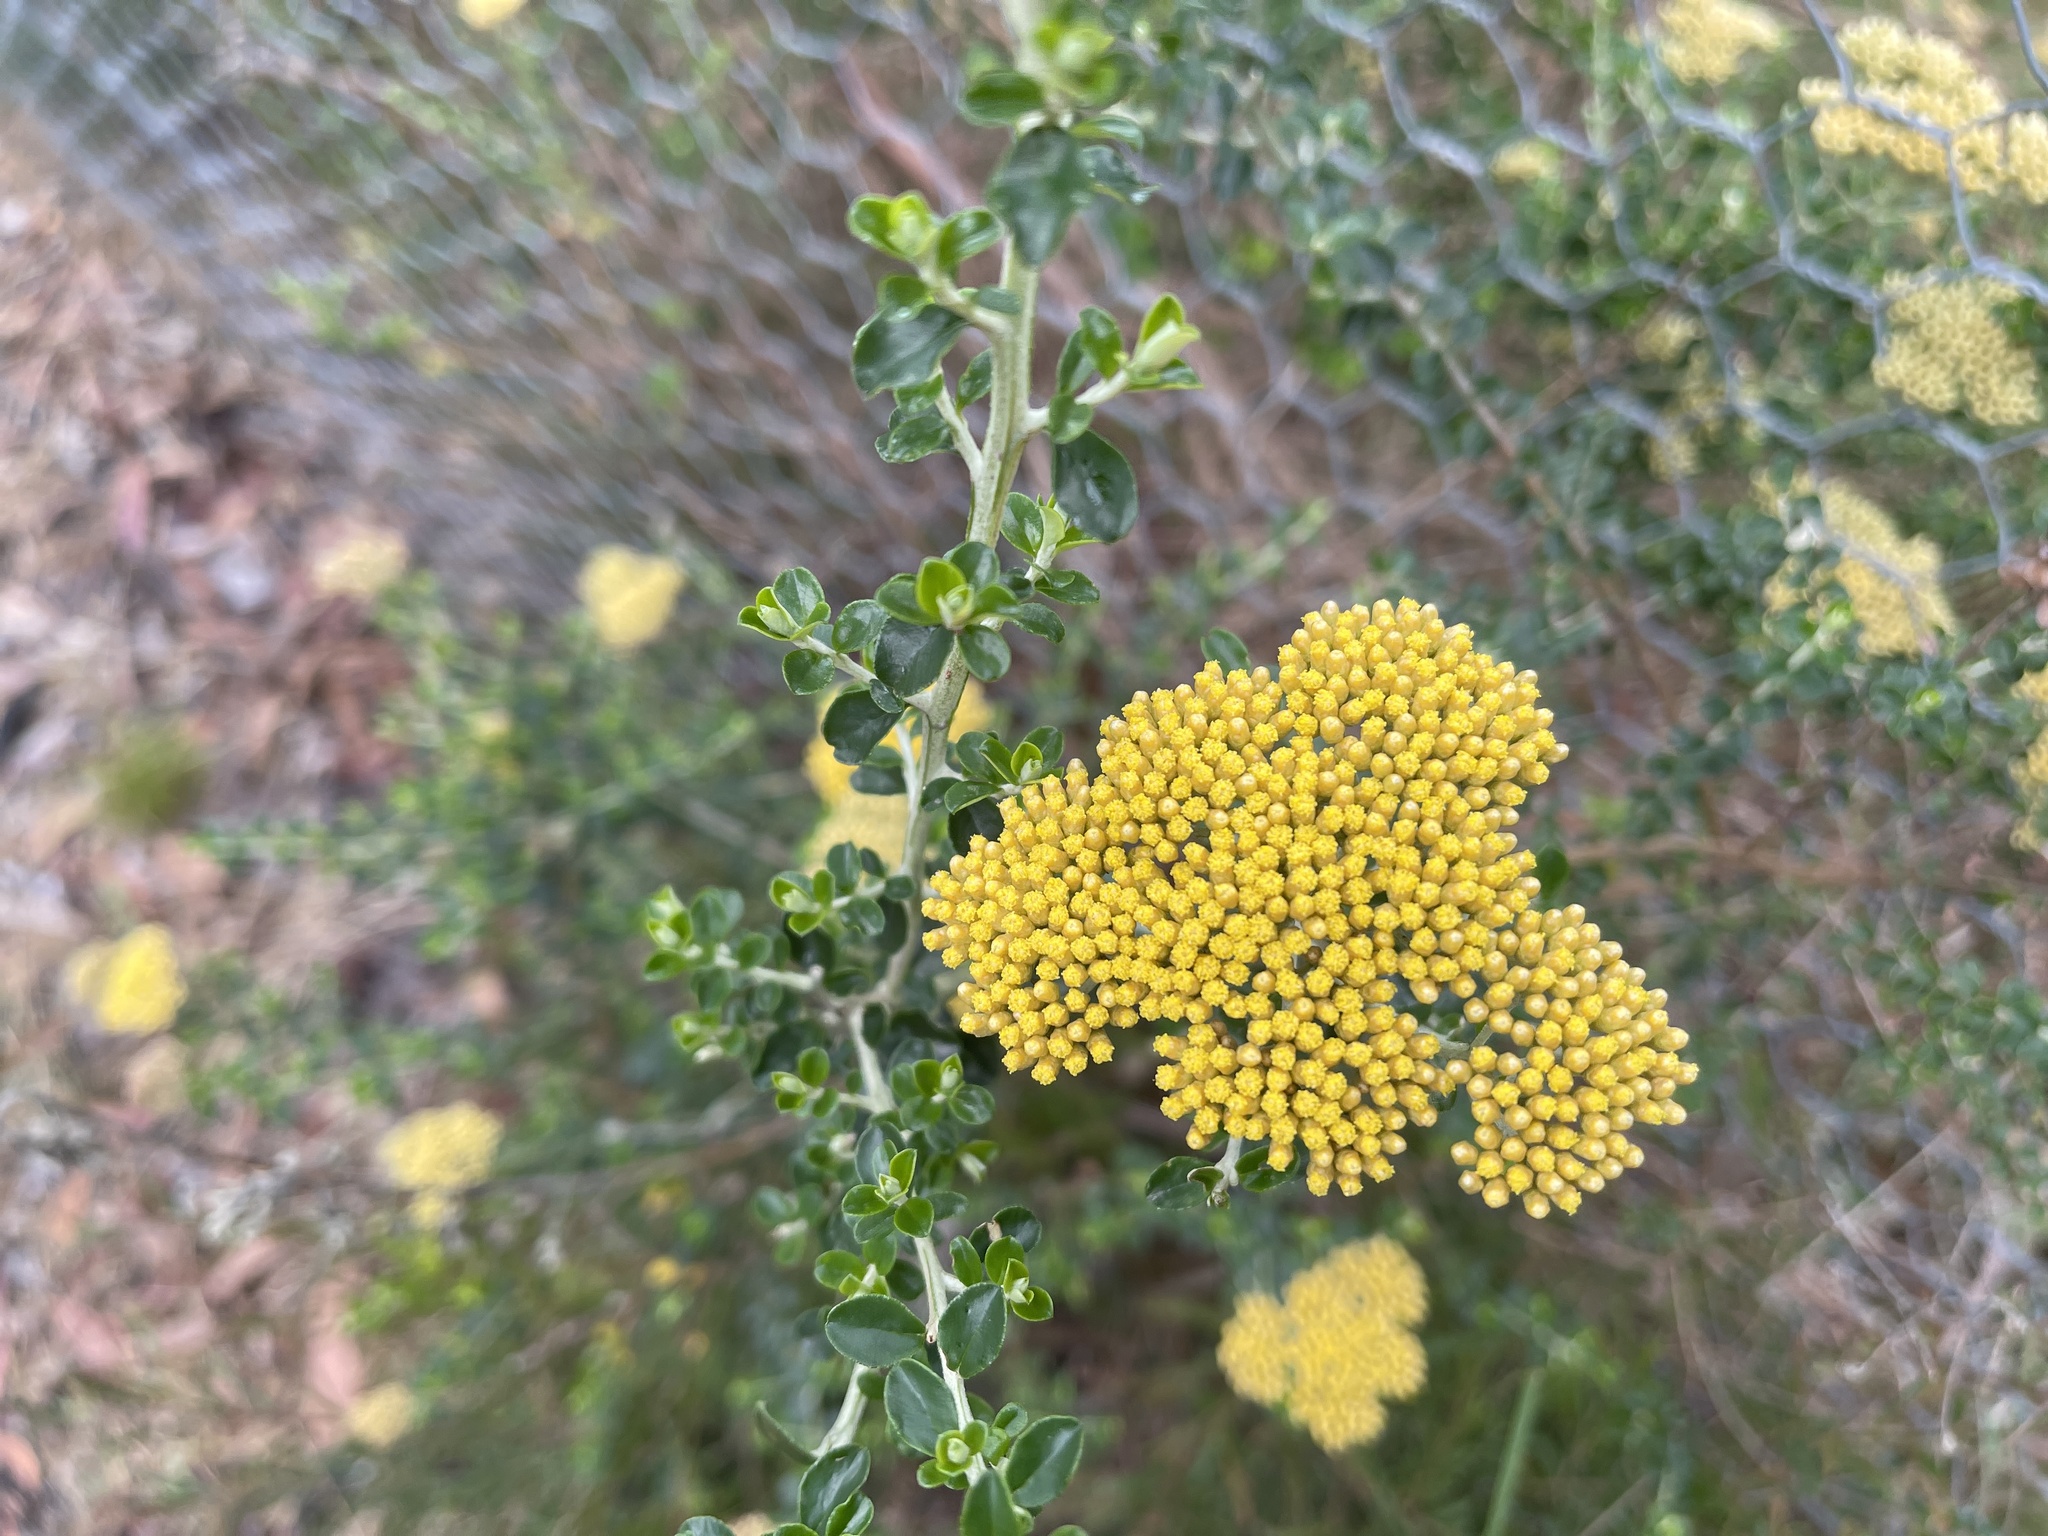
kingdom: Plantae
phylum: Tracheophyta
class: Magnoliopsida
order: Asterales
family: Asteraceae
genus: Ozothamnus
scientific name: Ozothamnus obcordatus
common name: Grey everlasting
